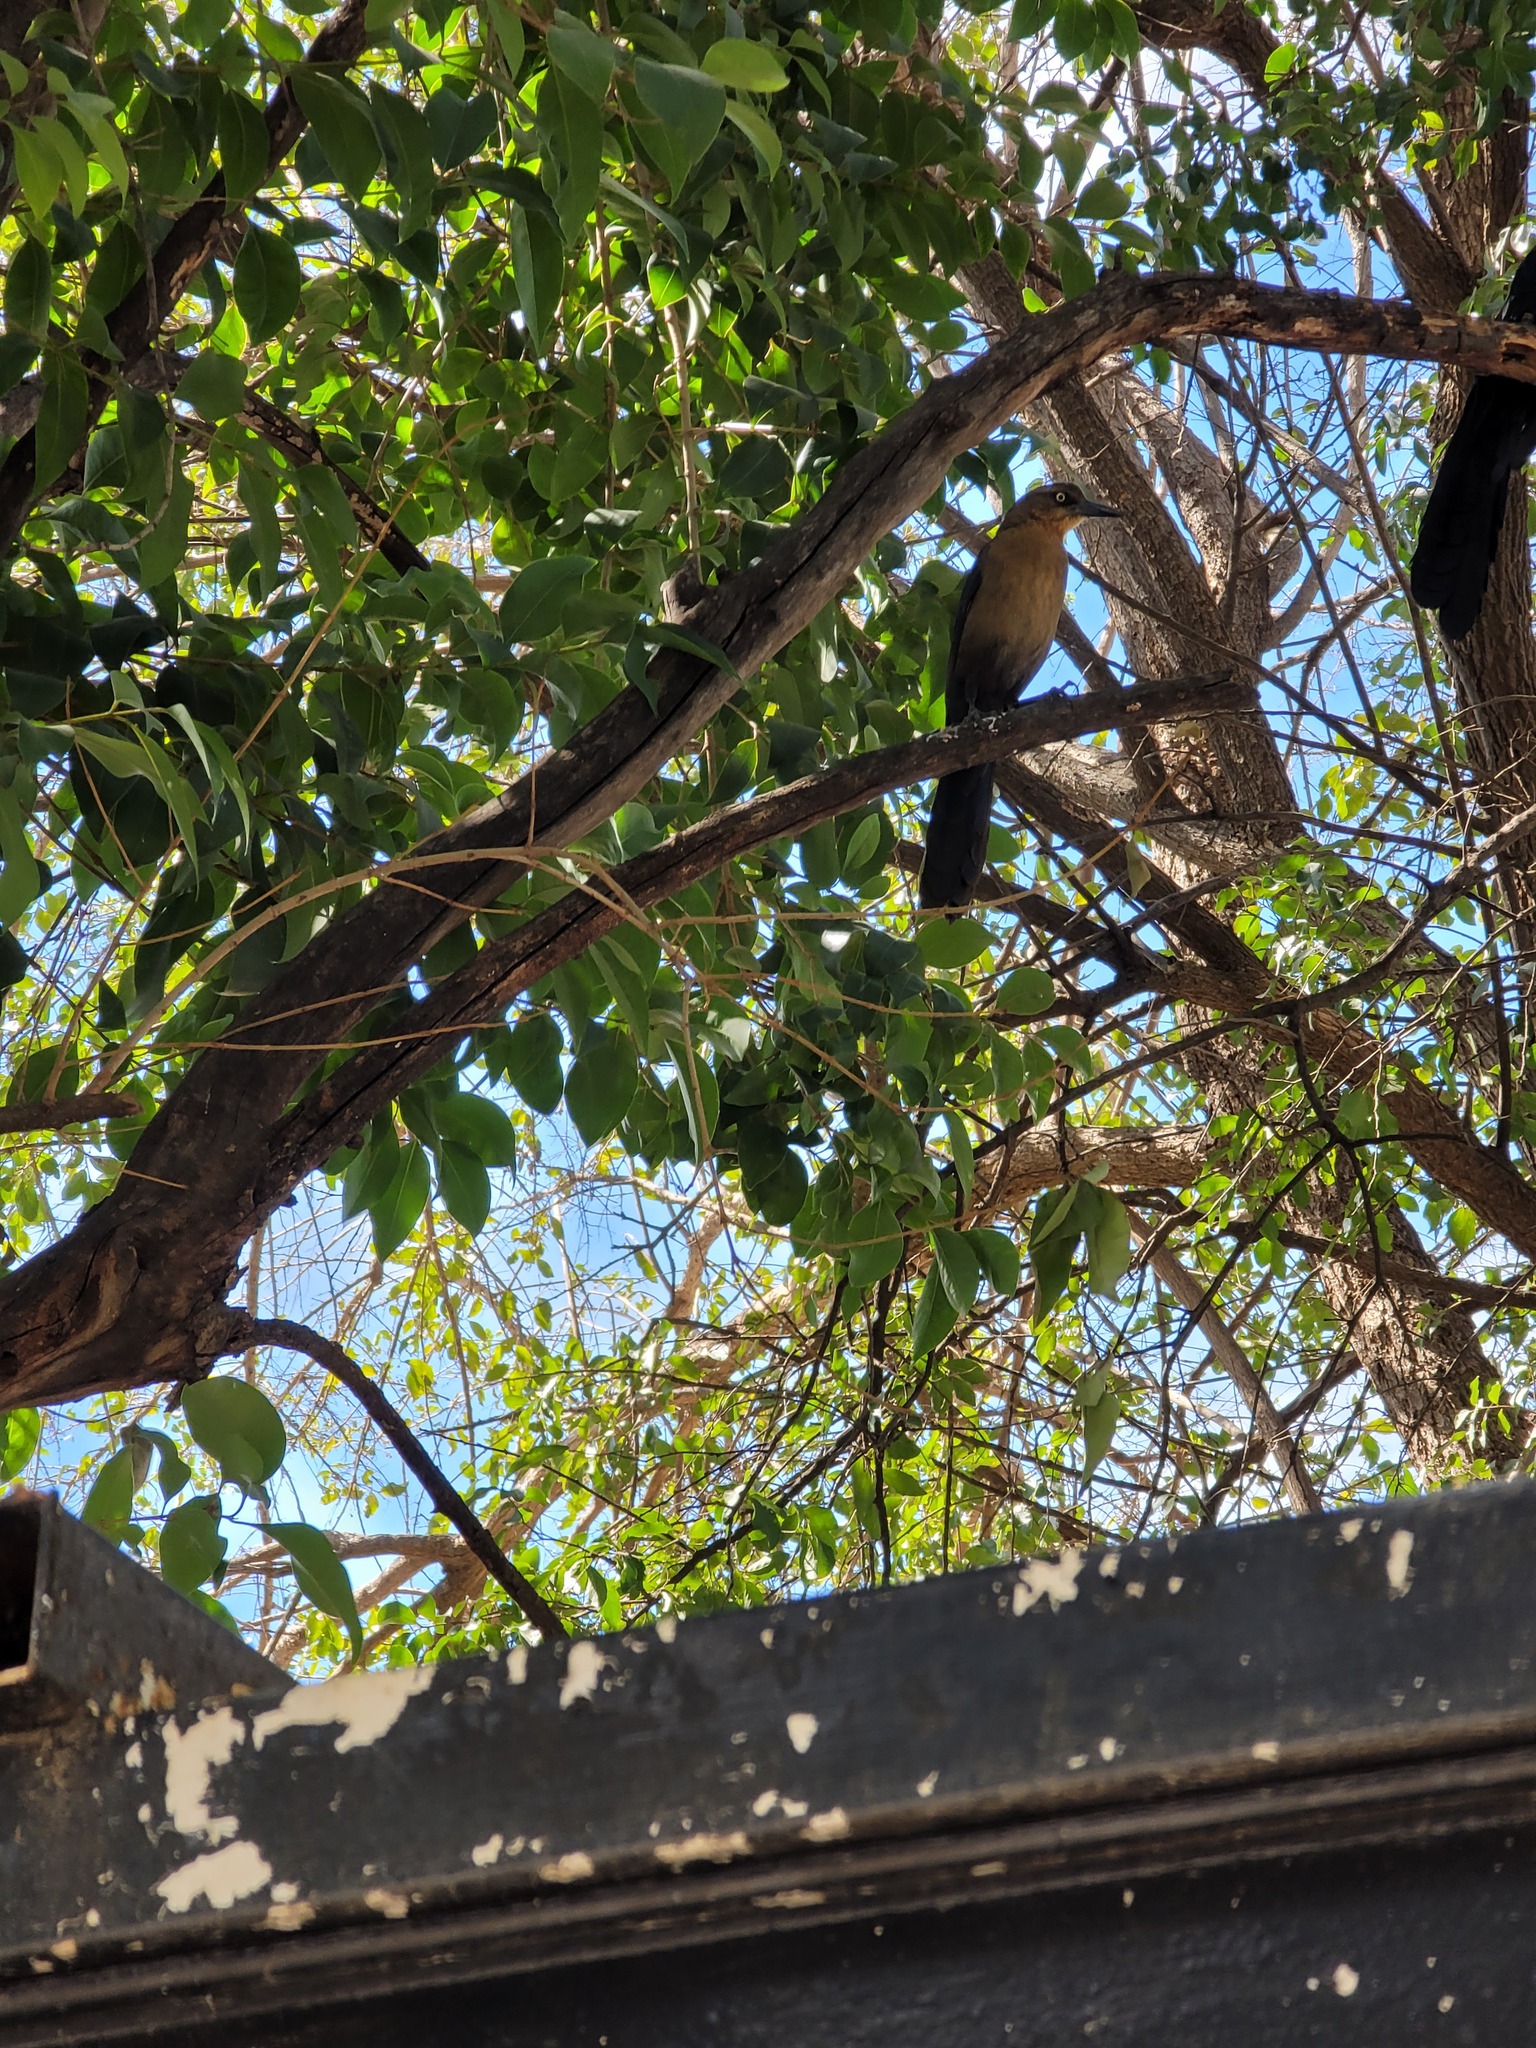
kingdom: Animalia
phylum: Chordata
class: Aves
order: Passeriformes
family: Icteridae
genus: Quiscalus
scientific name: Quiscalus mexicanus
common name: Great-tailed grackle
